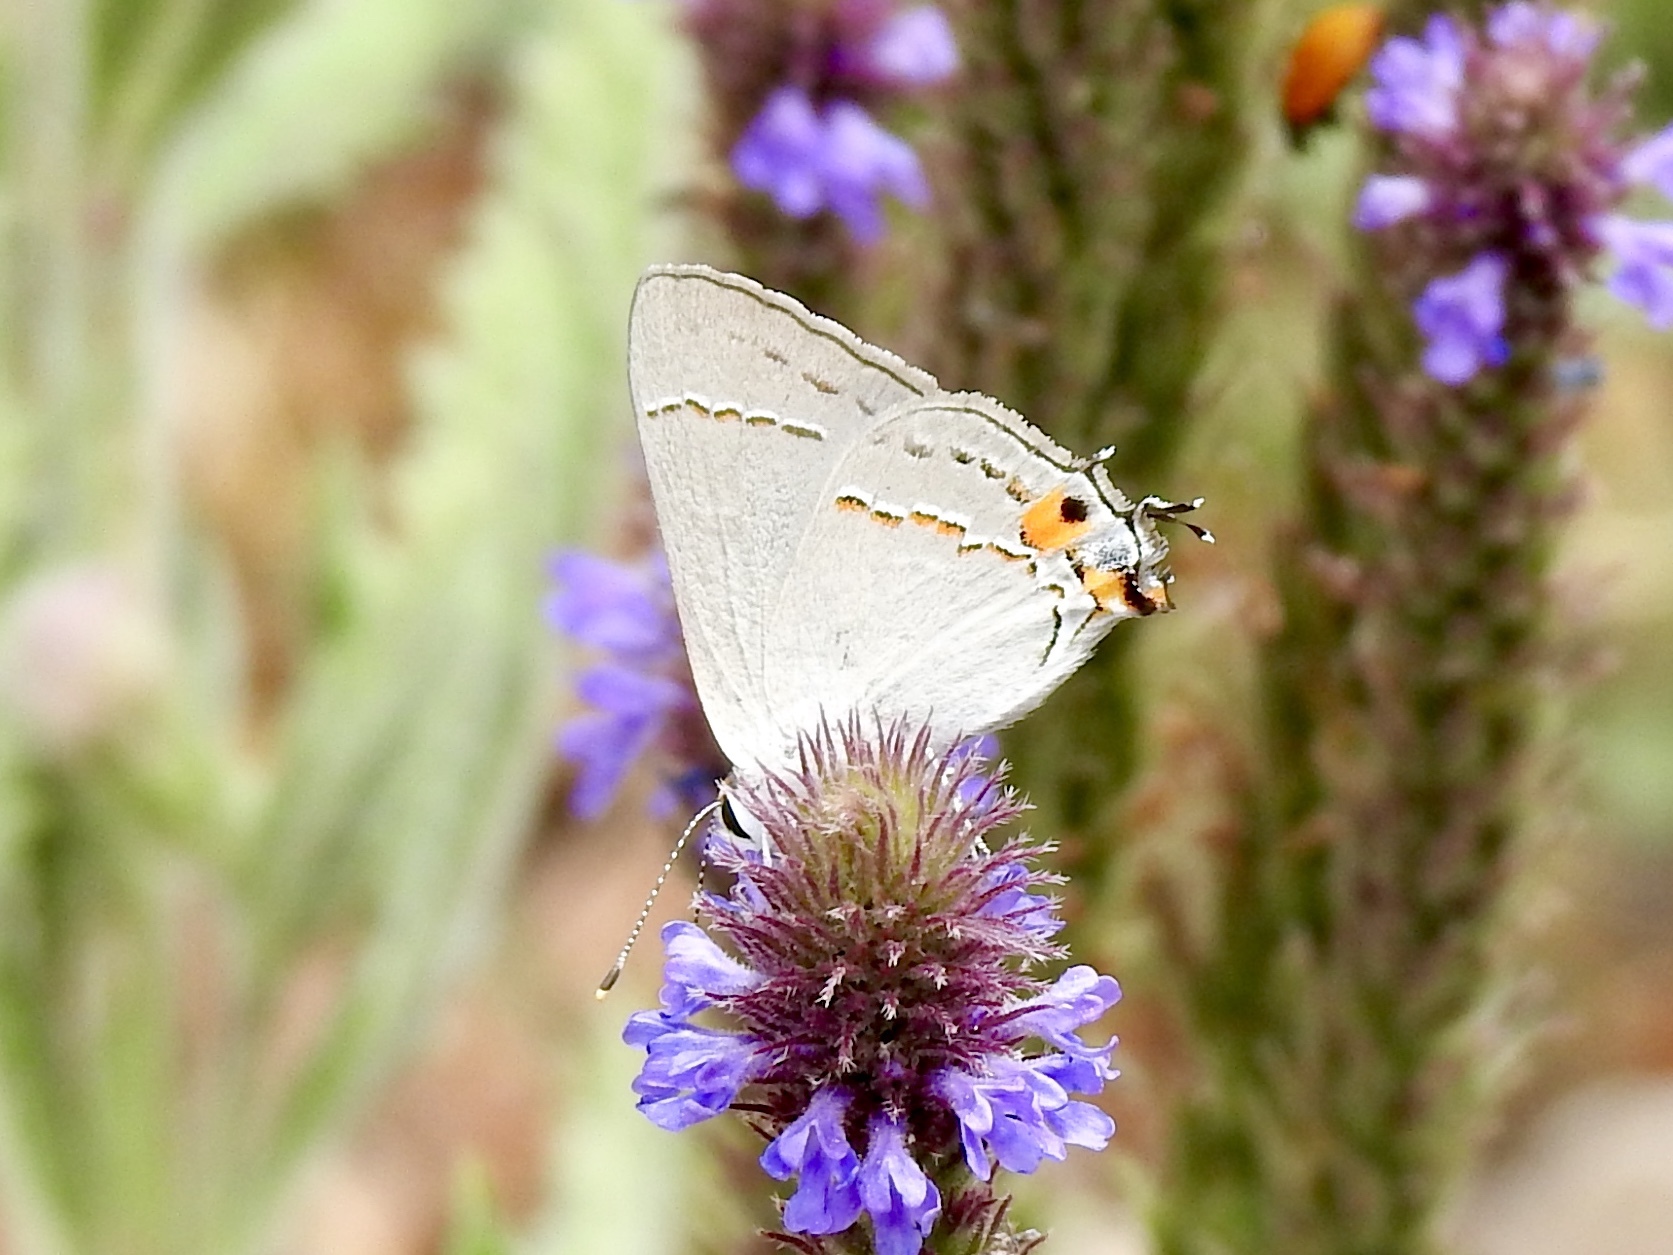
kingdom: Animalia
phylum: Arthropoda
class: Insecta
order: Lepidoptera
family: Lycaenidae
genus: Strymon
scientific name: Strymon melinus
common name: Gray hairstreak
